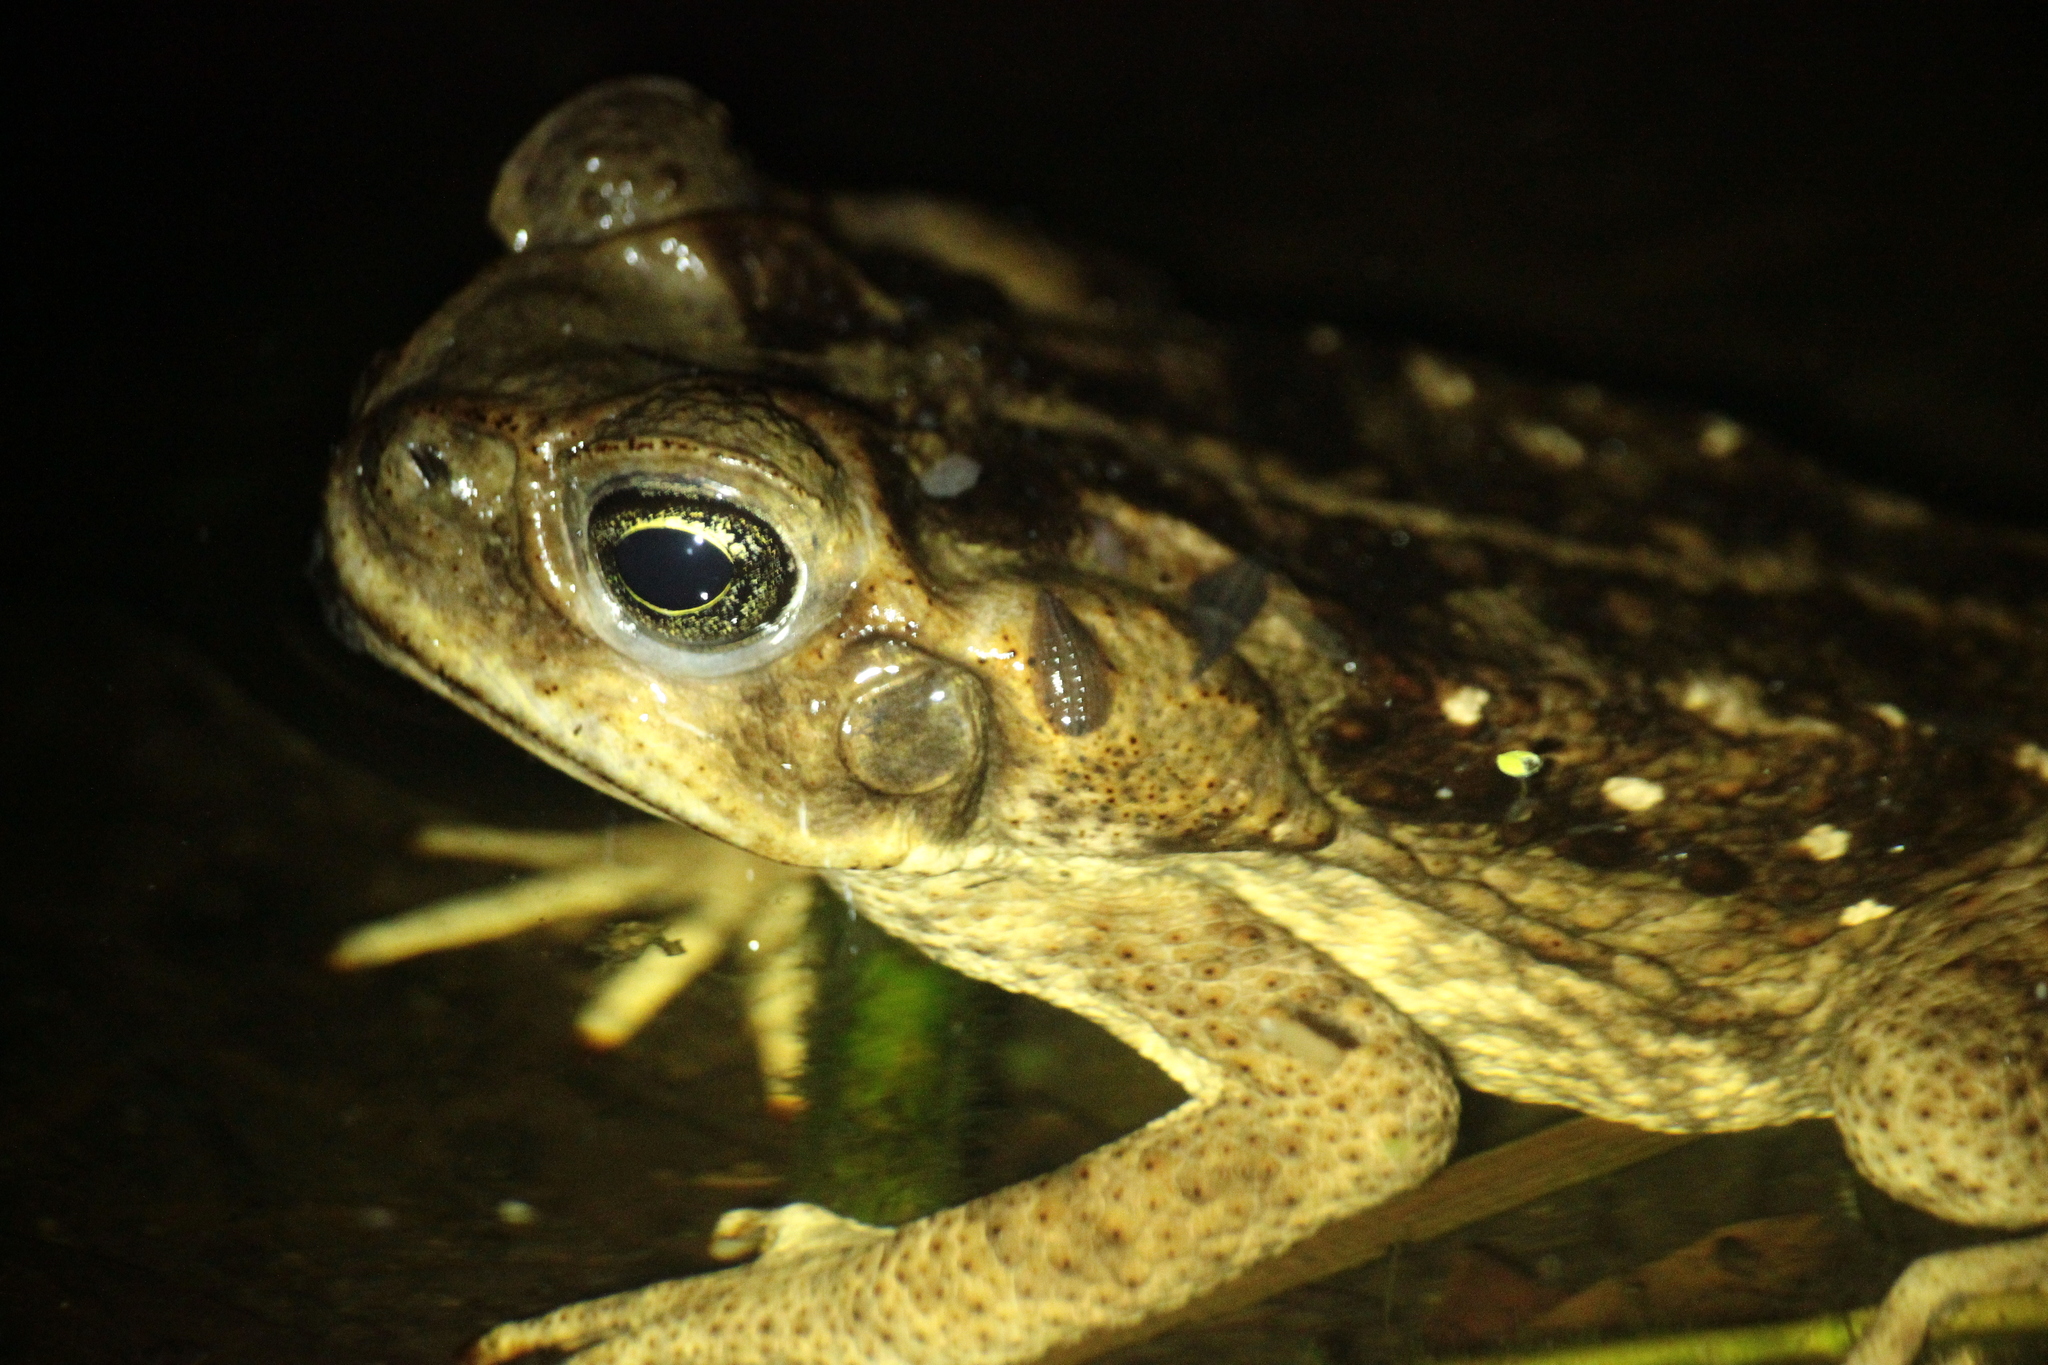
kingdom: Animalia
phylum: Chordata
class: Amphibia
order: Anura
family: Bufonidae
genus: Rhinella
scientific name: Rhinella marina
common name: Cane toad
